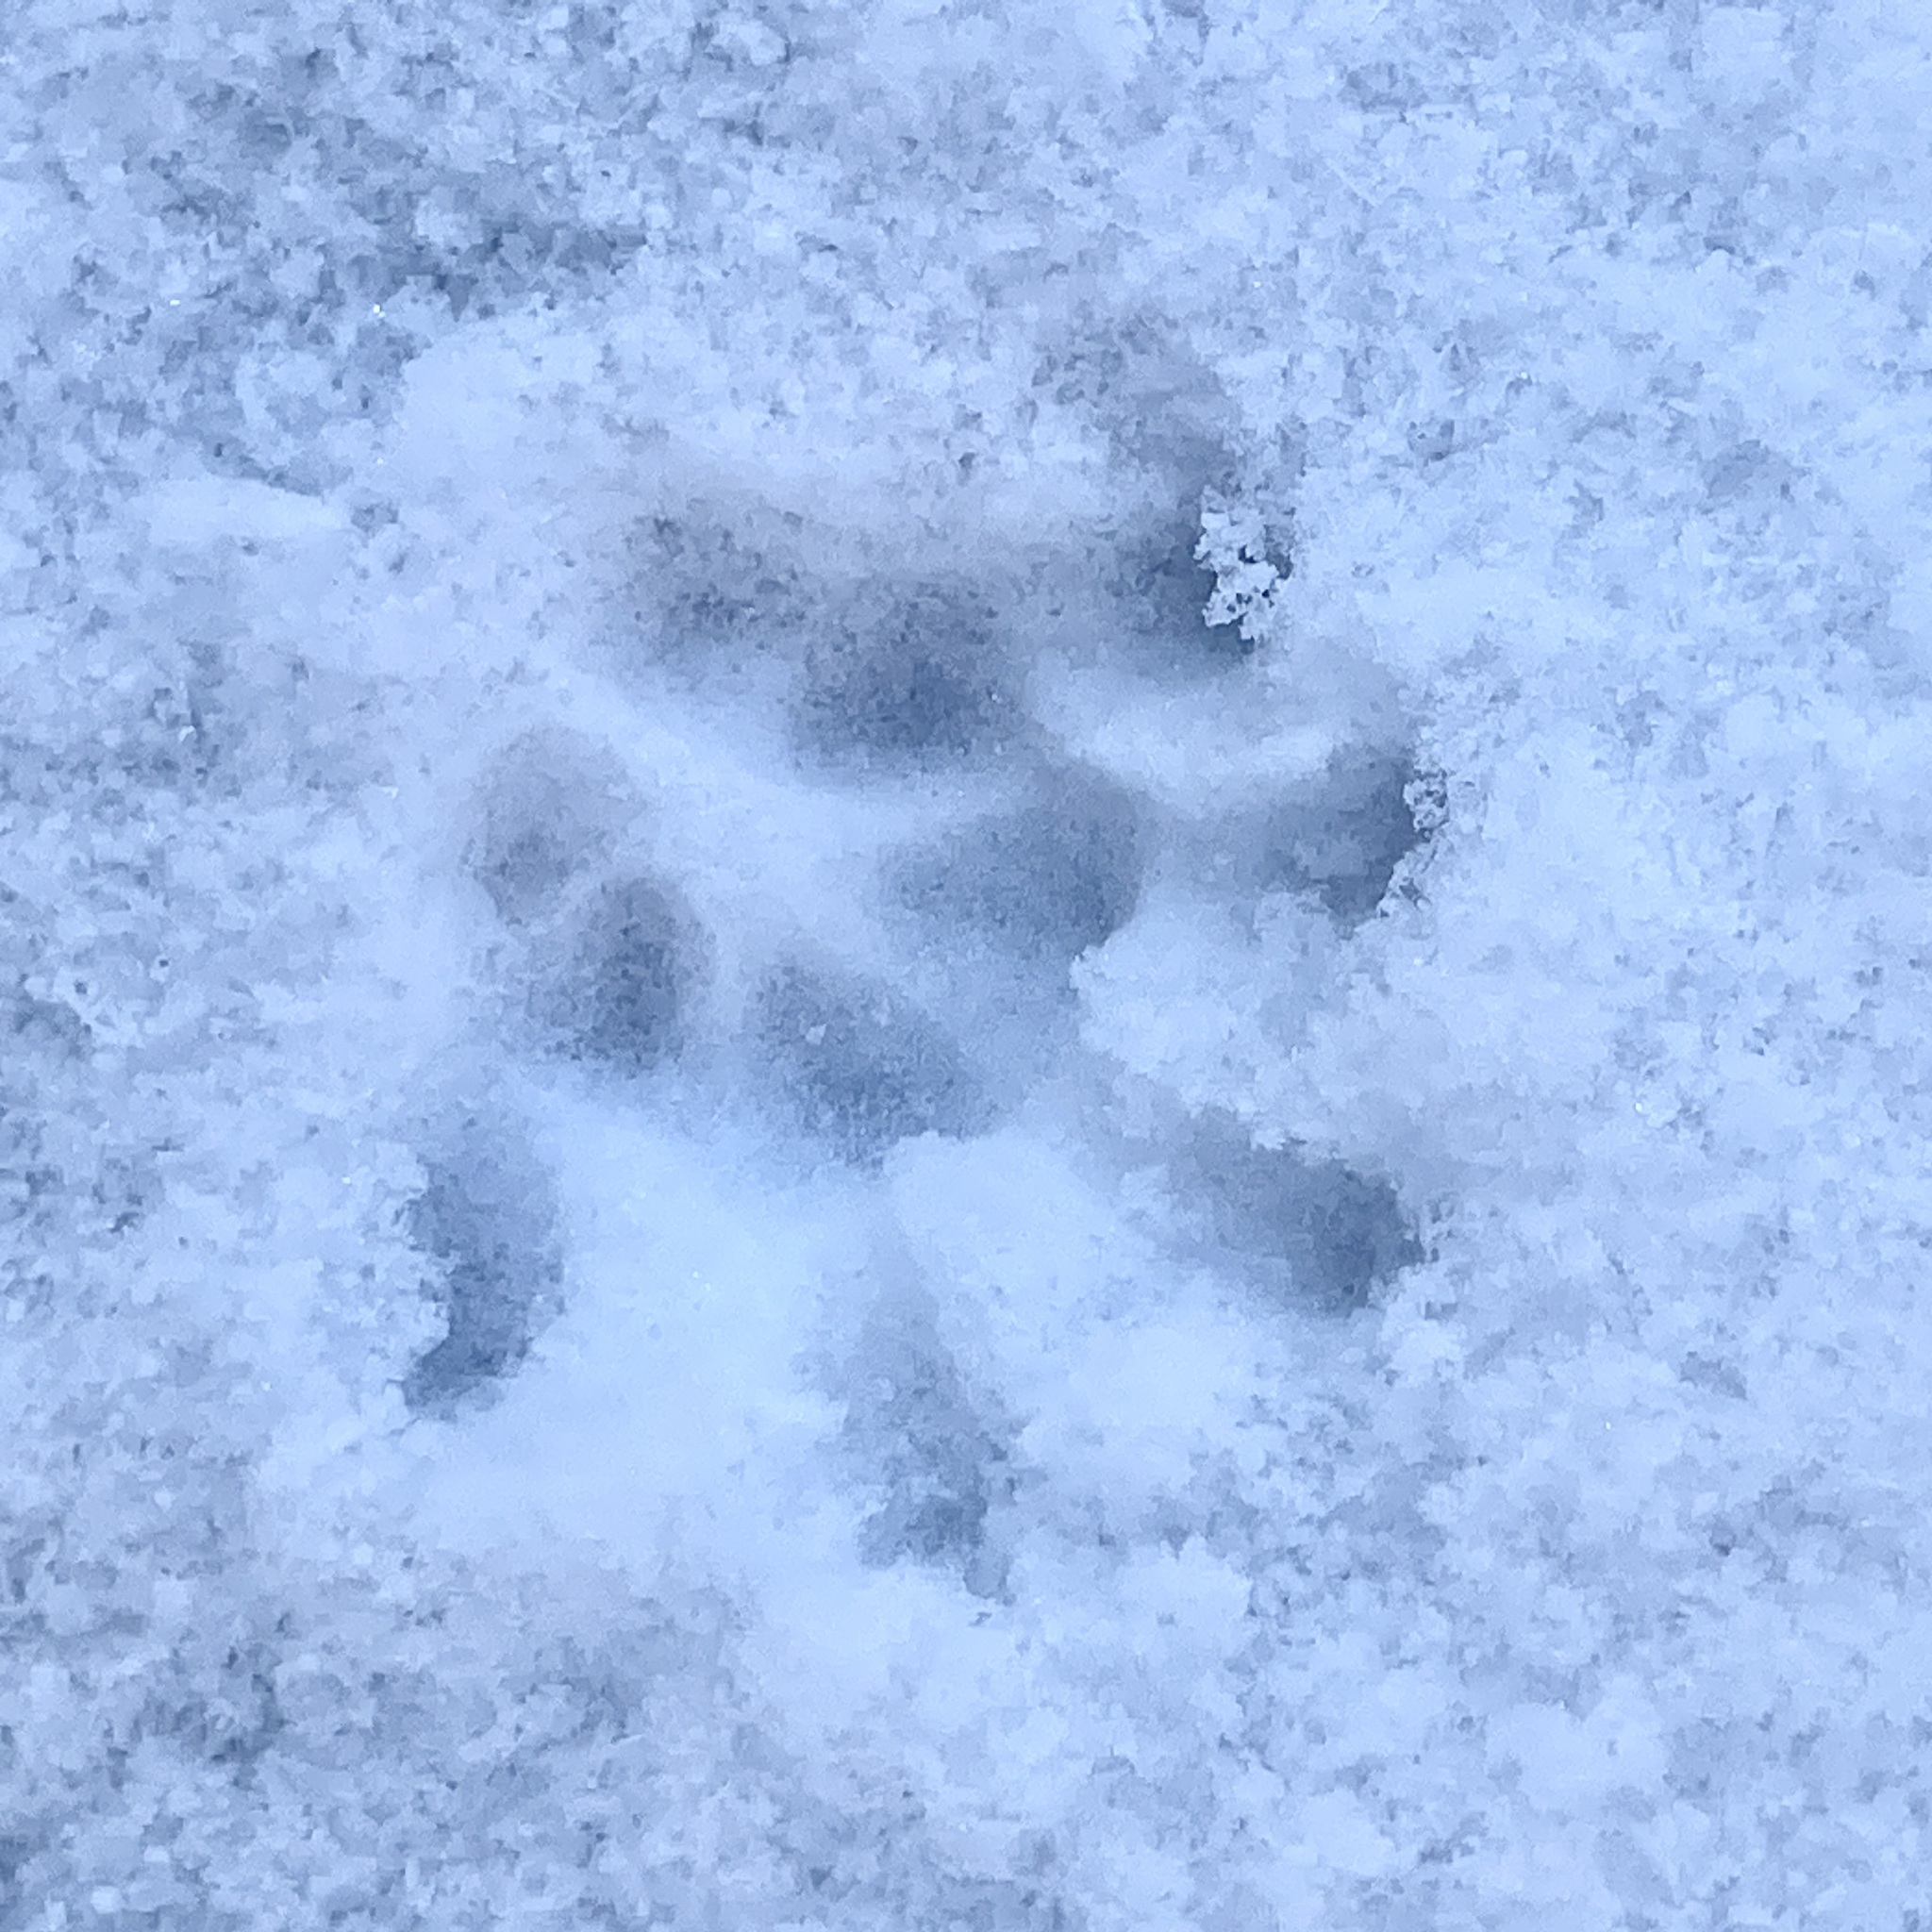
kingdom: Animalia
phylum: Chordata
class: Mammalia
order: Didelphimorphia
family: Didelphidae
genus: Didelphis
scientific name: Didelphis virginiana
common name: Virginia opossum
